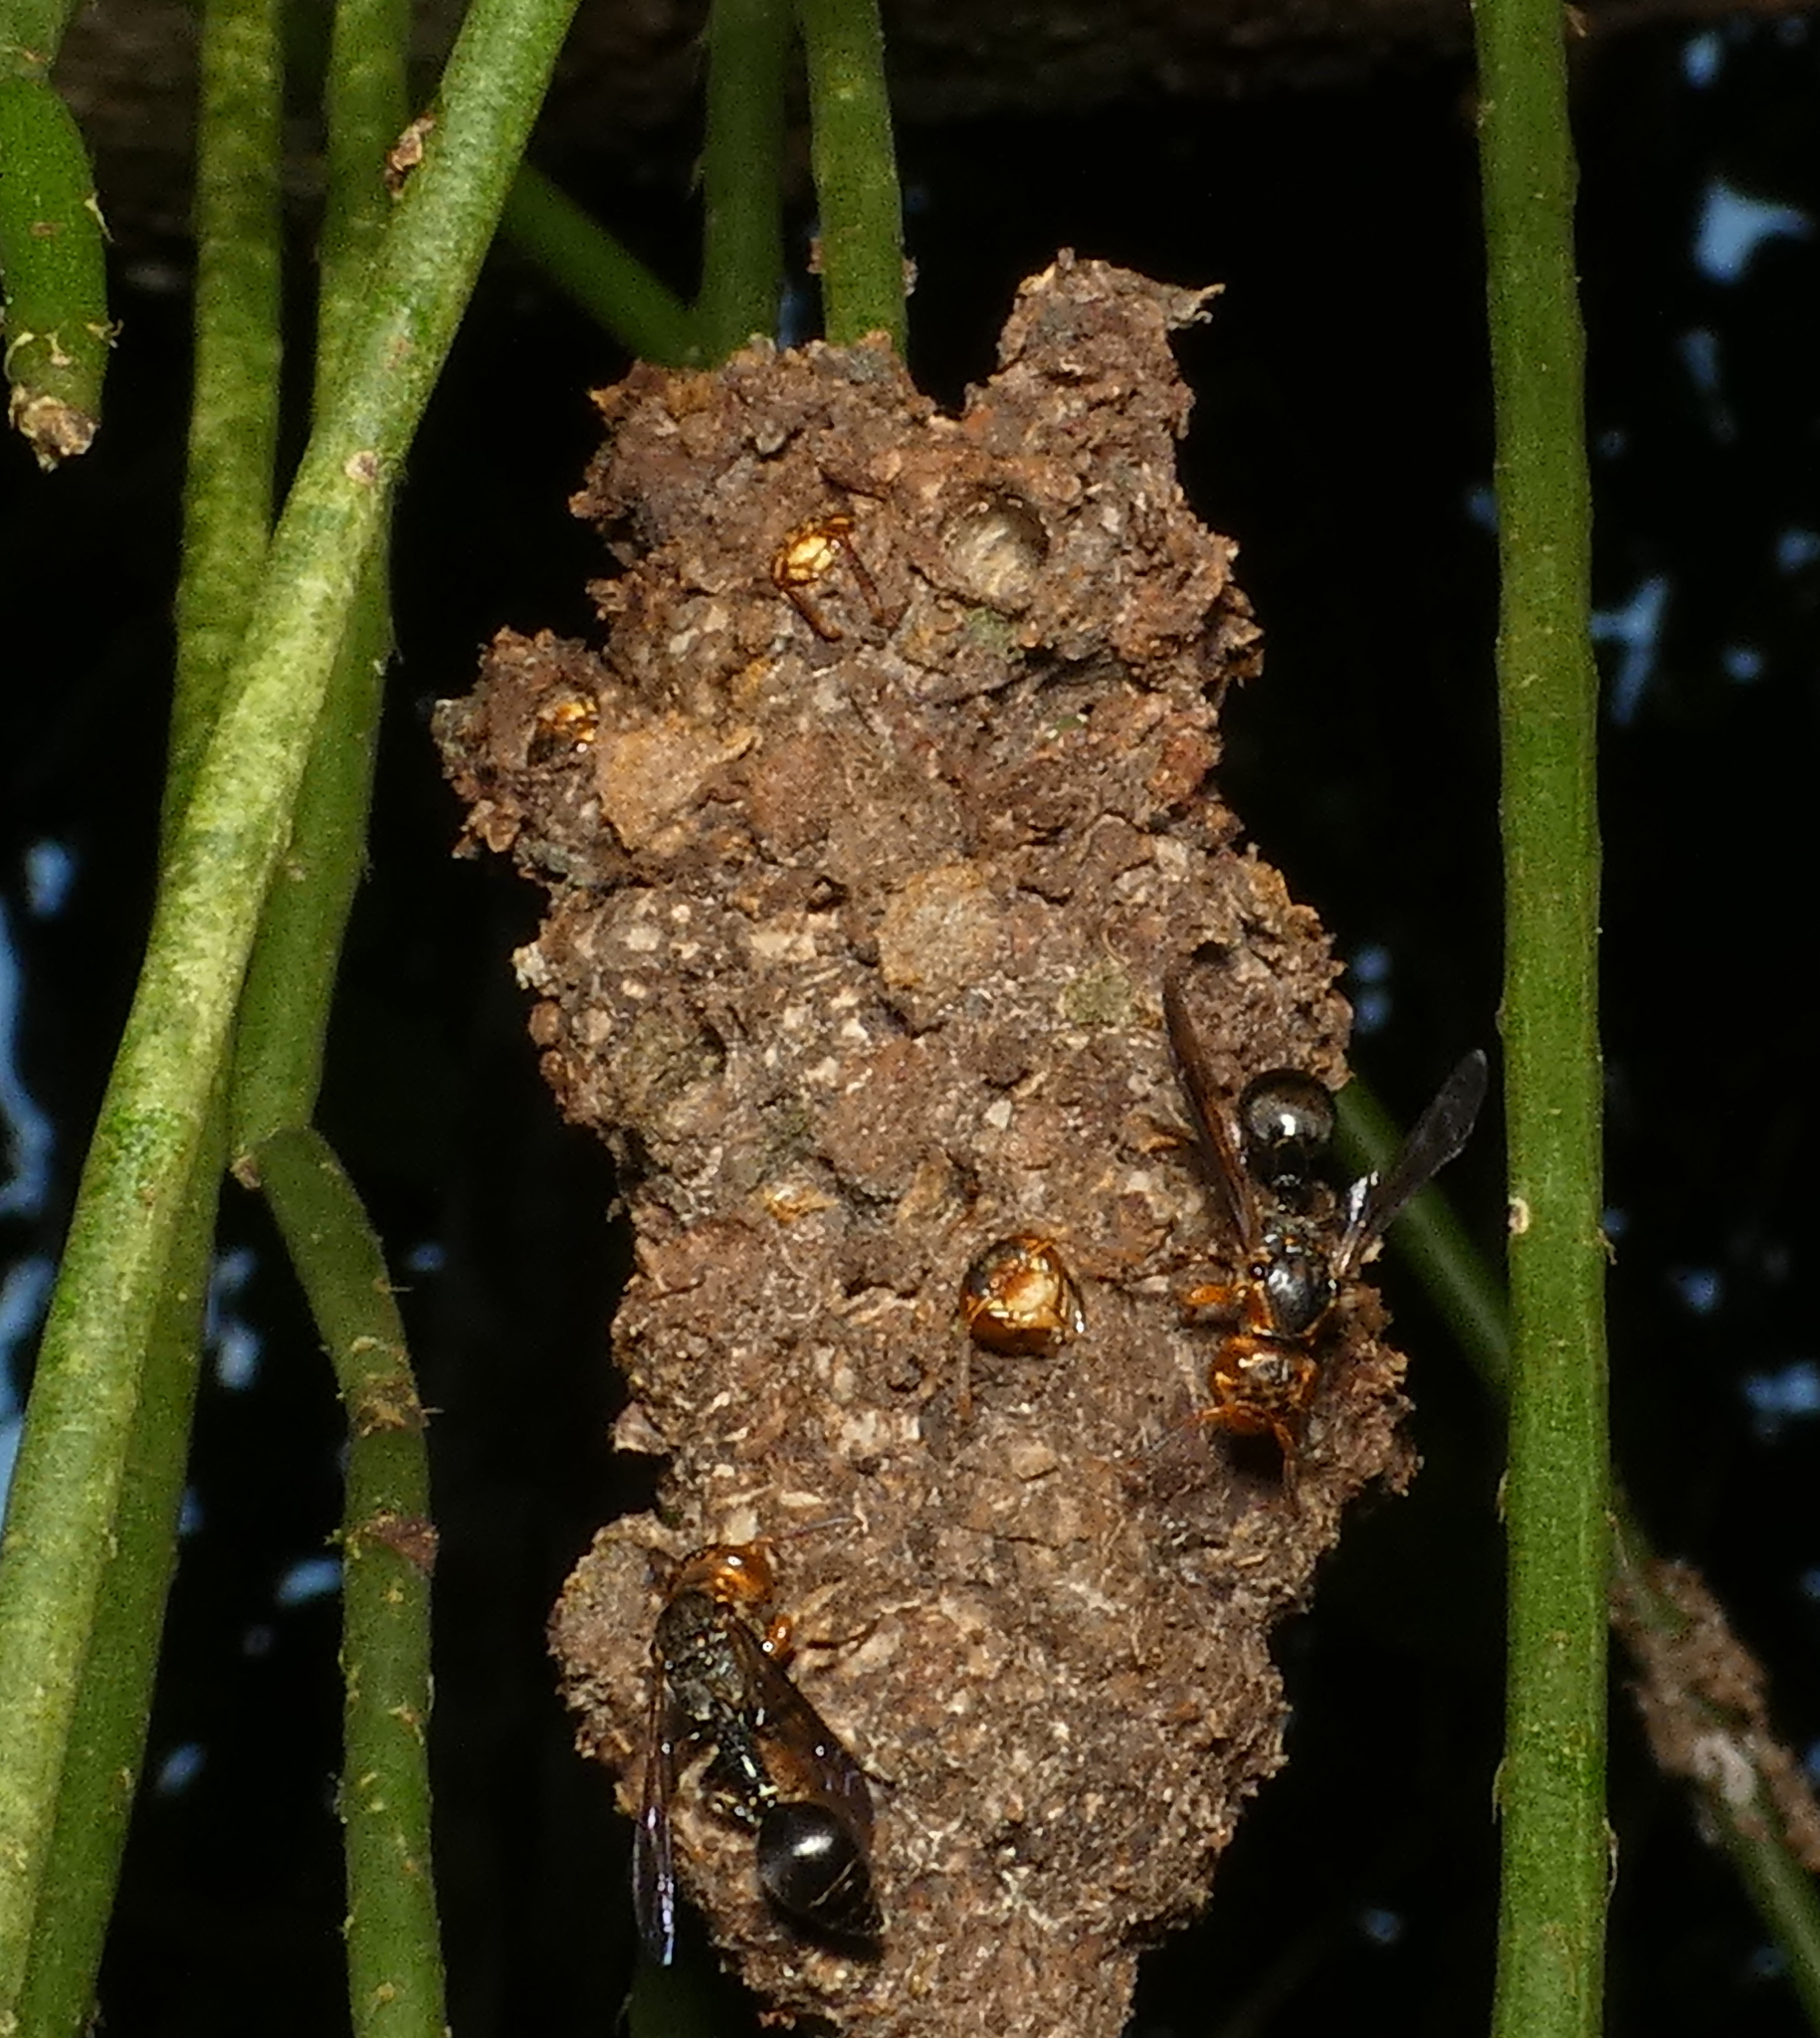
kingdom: Animalia
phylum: Arthropoda
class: Insecta
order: Hymenoptera
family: Eumenidae
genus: Zethus
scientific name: Zethus miniatus
